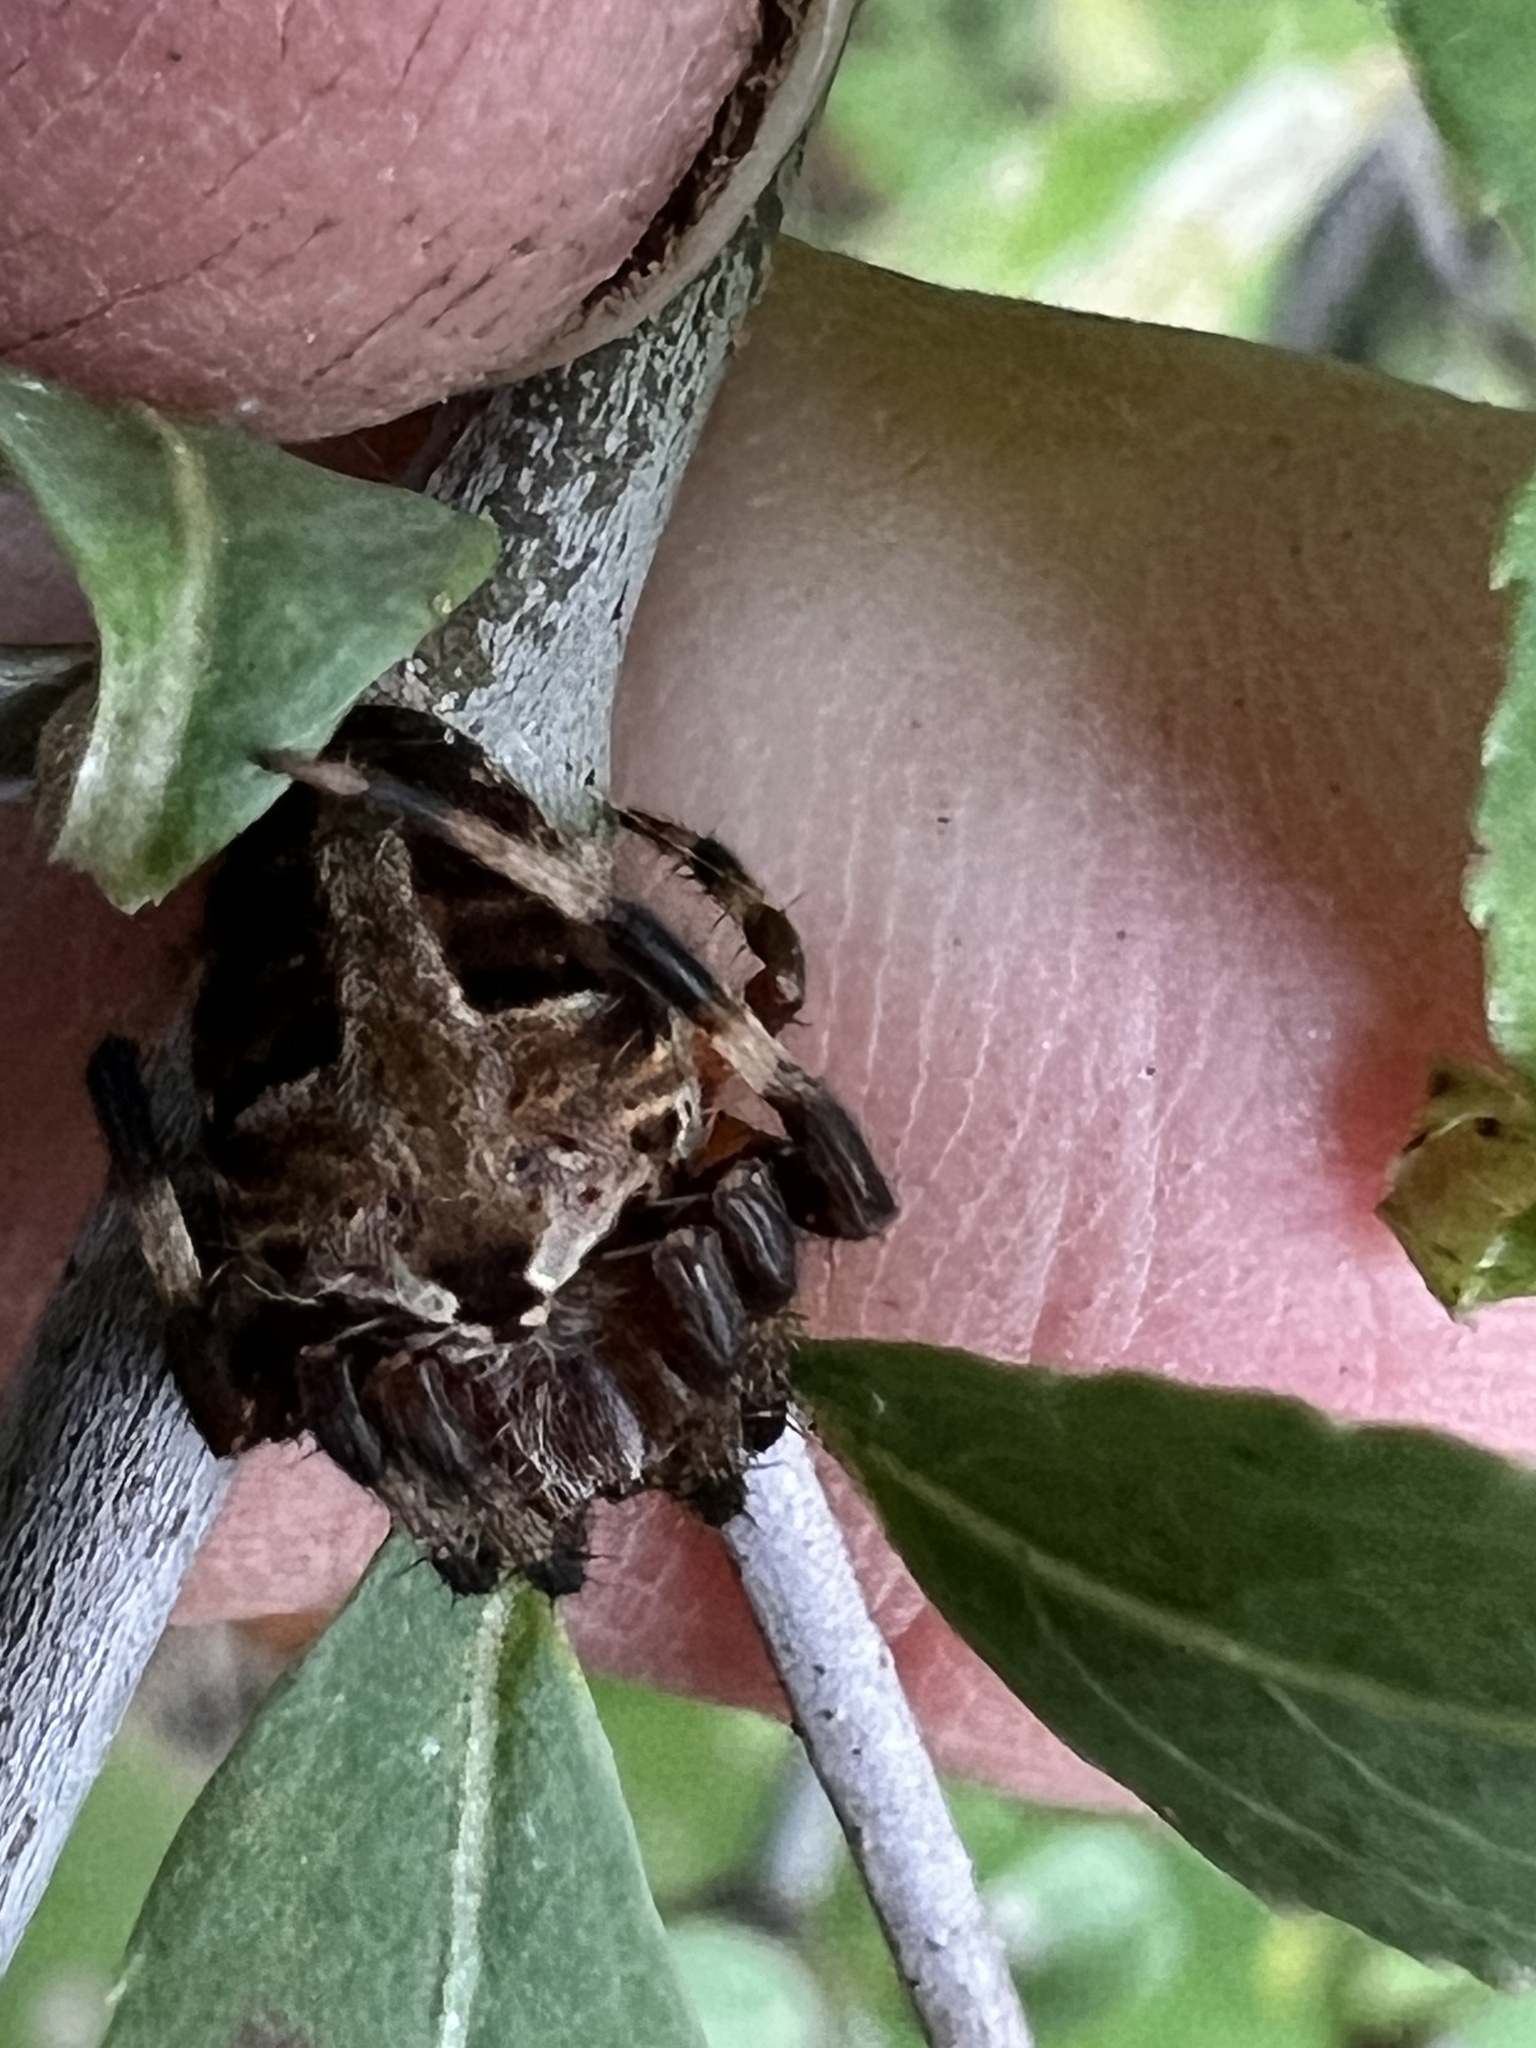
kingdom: Animalia
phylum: Arthropoda
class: Arachnida
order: Araneae
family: Araneidae
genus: Neoscona
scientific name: Neoscona domiciliorum
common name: Red-femured spotted orbweaver
